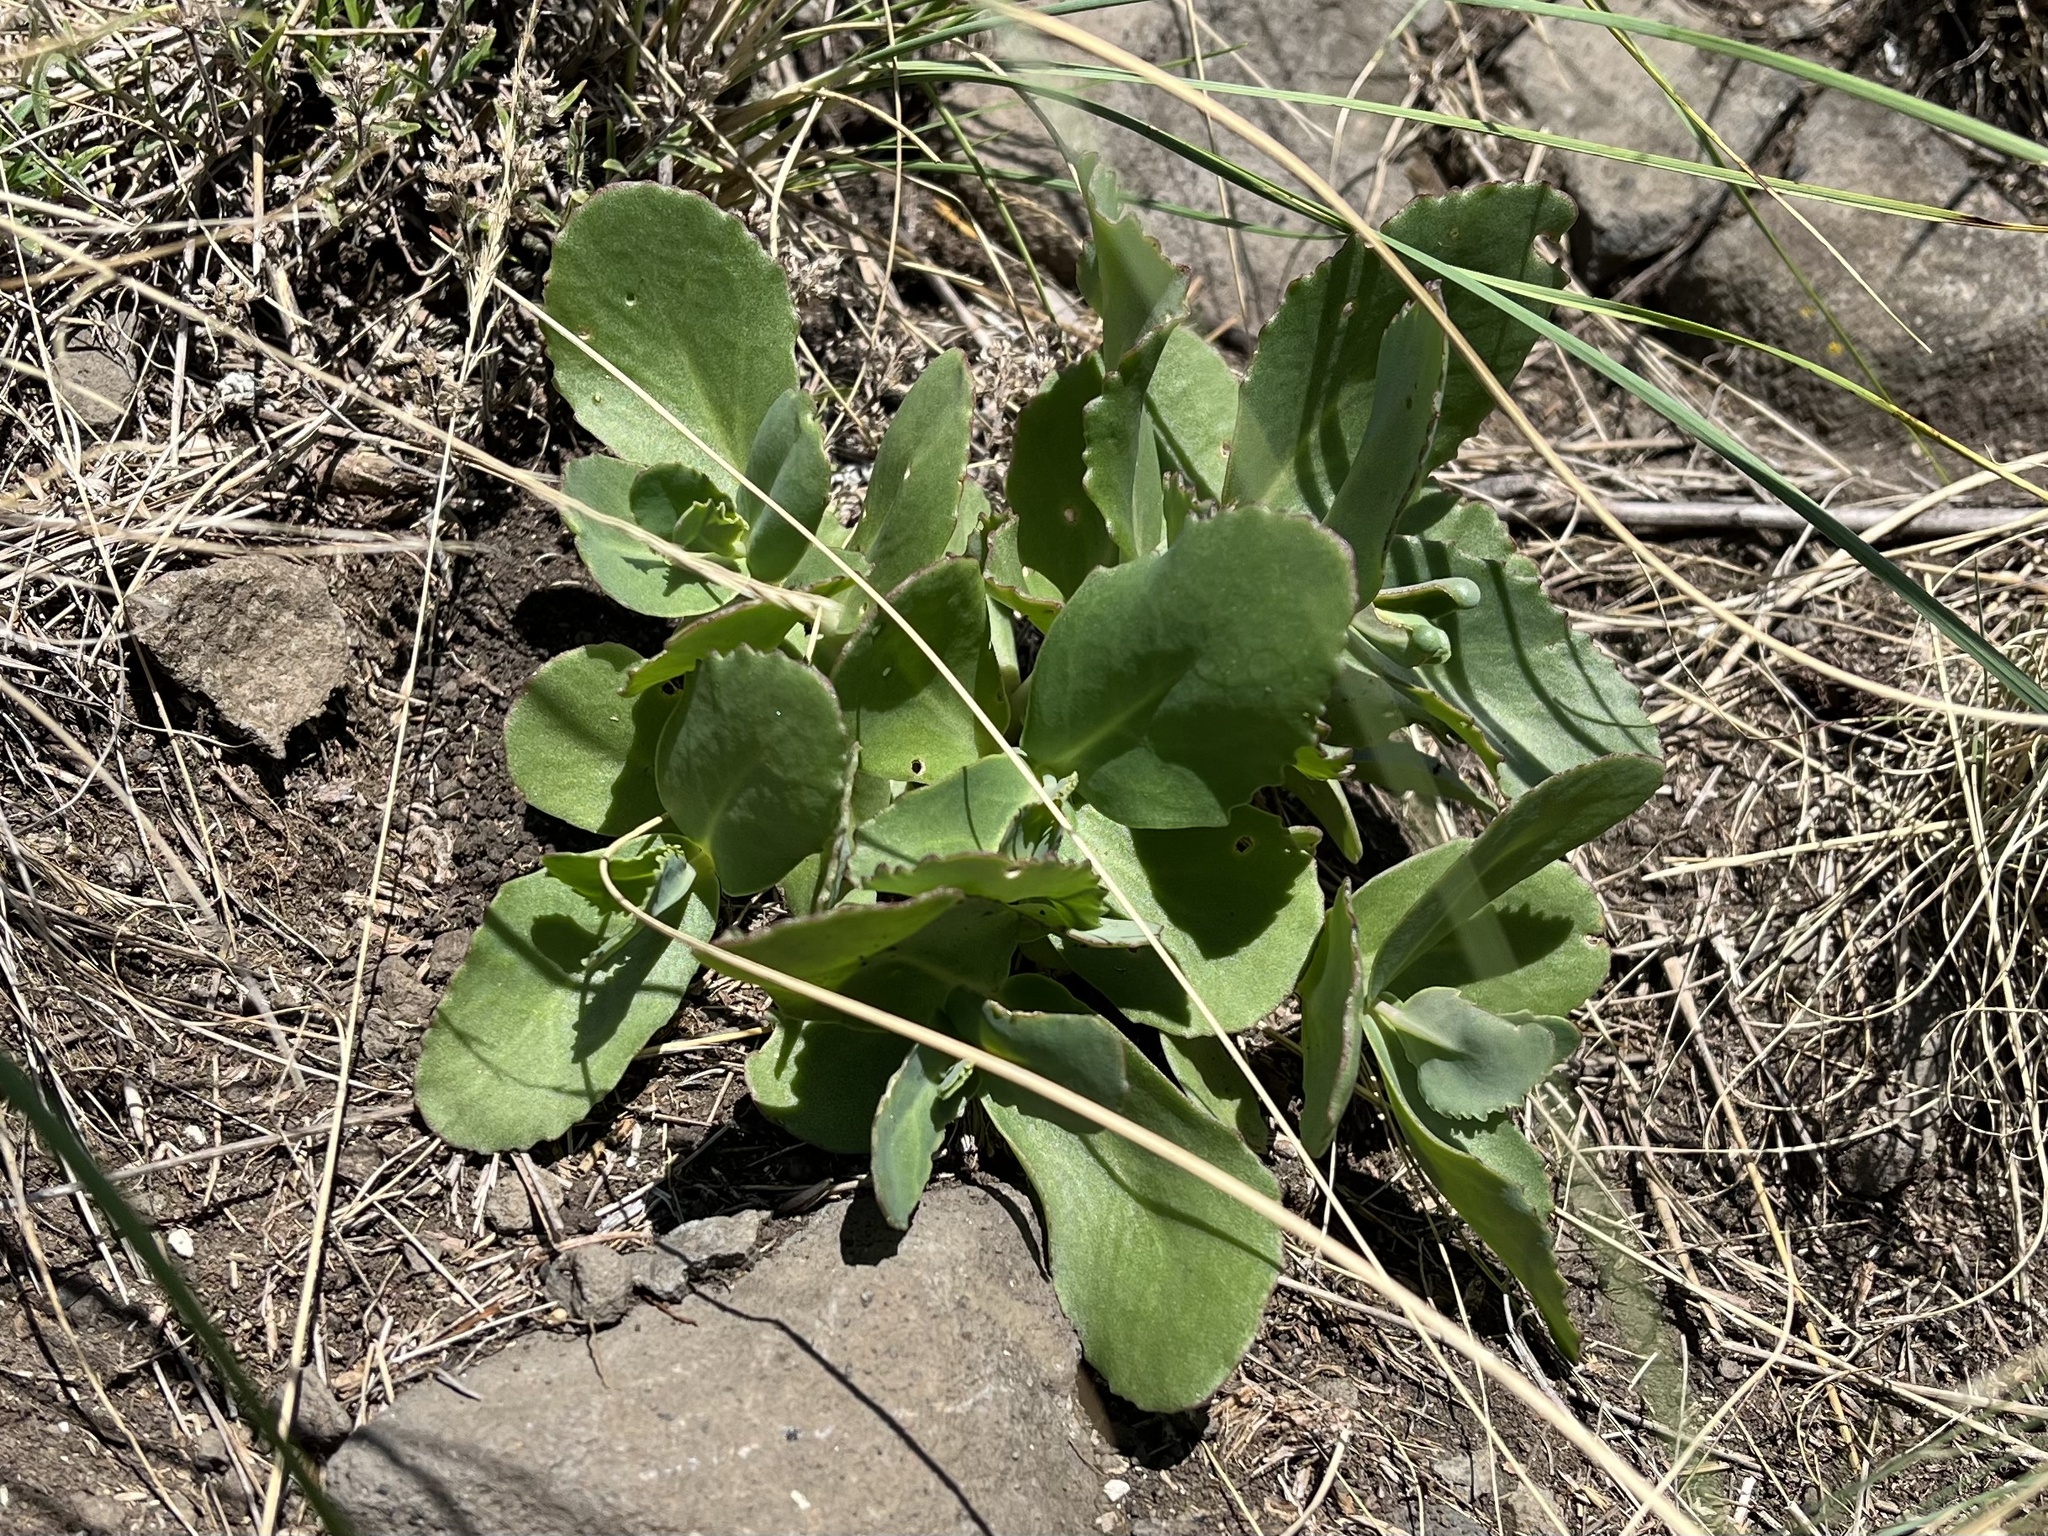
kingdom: Plantae
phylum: Tracheophyta
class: Magnoliopsida
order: Saxifragales
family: Crassulaceae
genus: Hylotelephium
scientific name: Hylotelephium maximum
